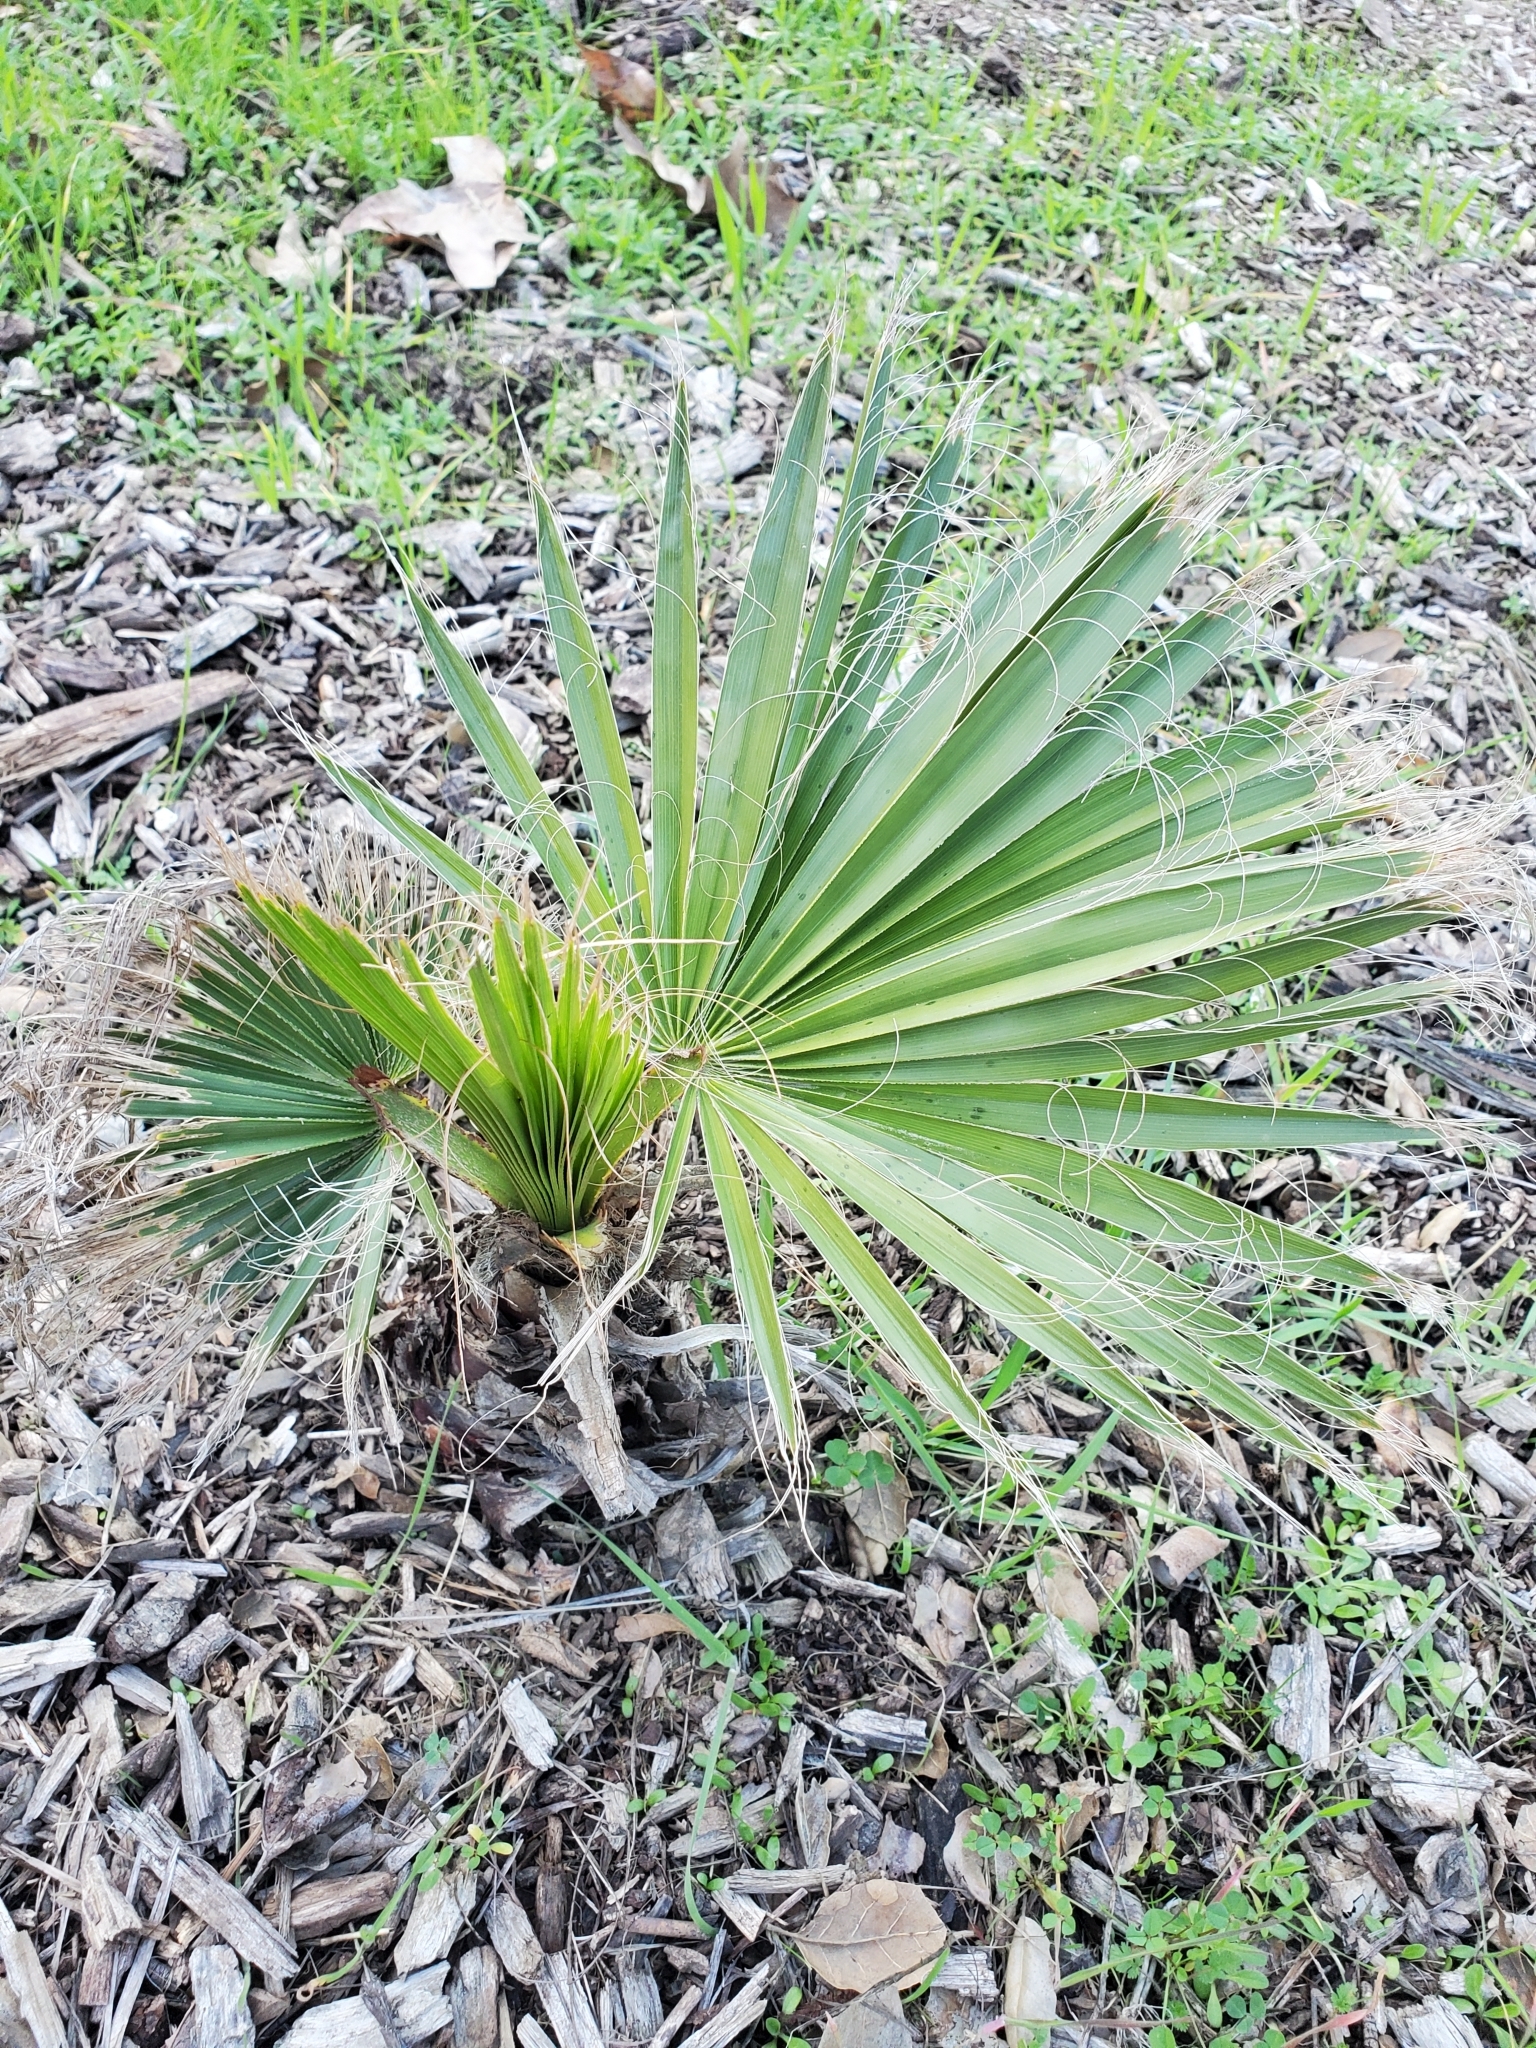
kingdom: Plantae
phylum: Tracheophyta
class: Liliopsida
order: Arecales
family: Arecaceae
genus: Washingtonia
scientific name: Washingtonia robusta
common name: Mexican fan palm
